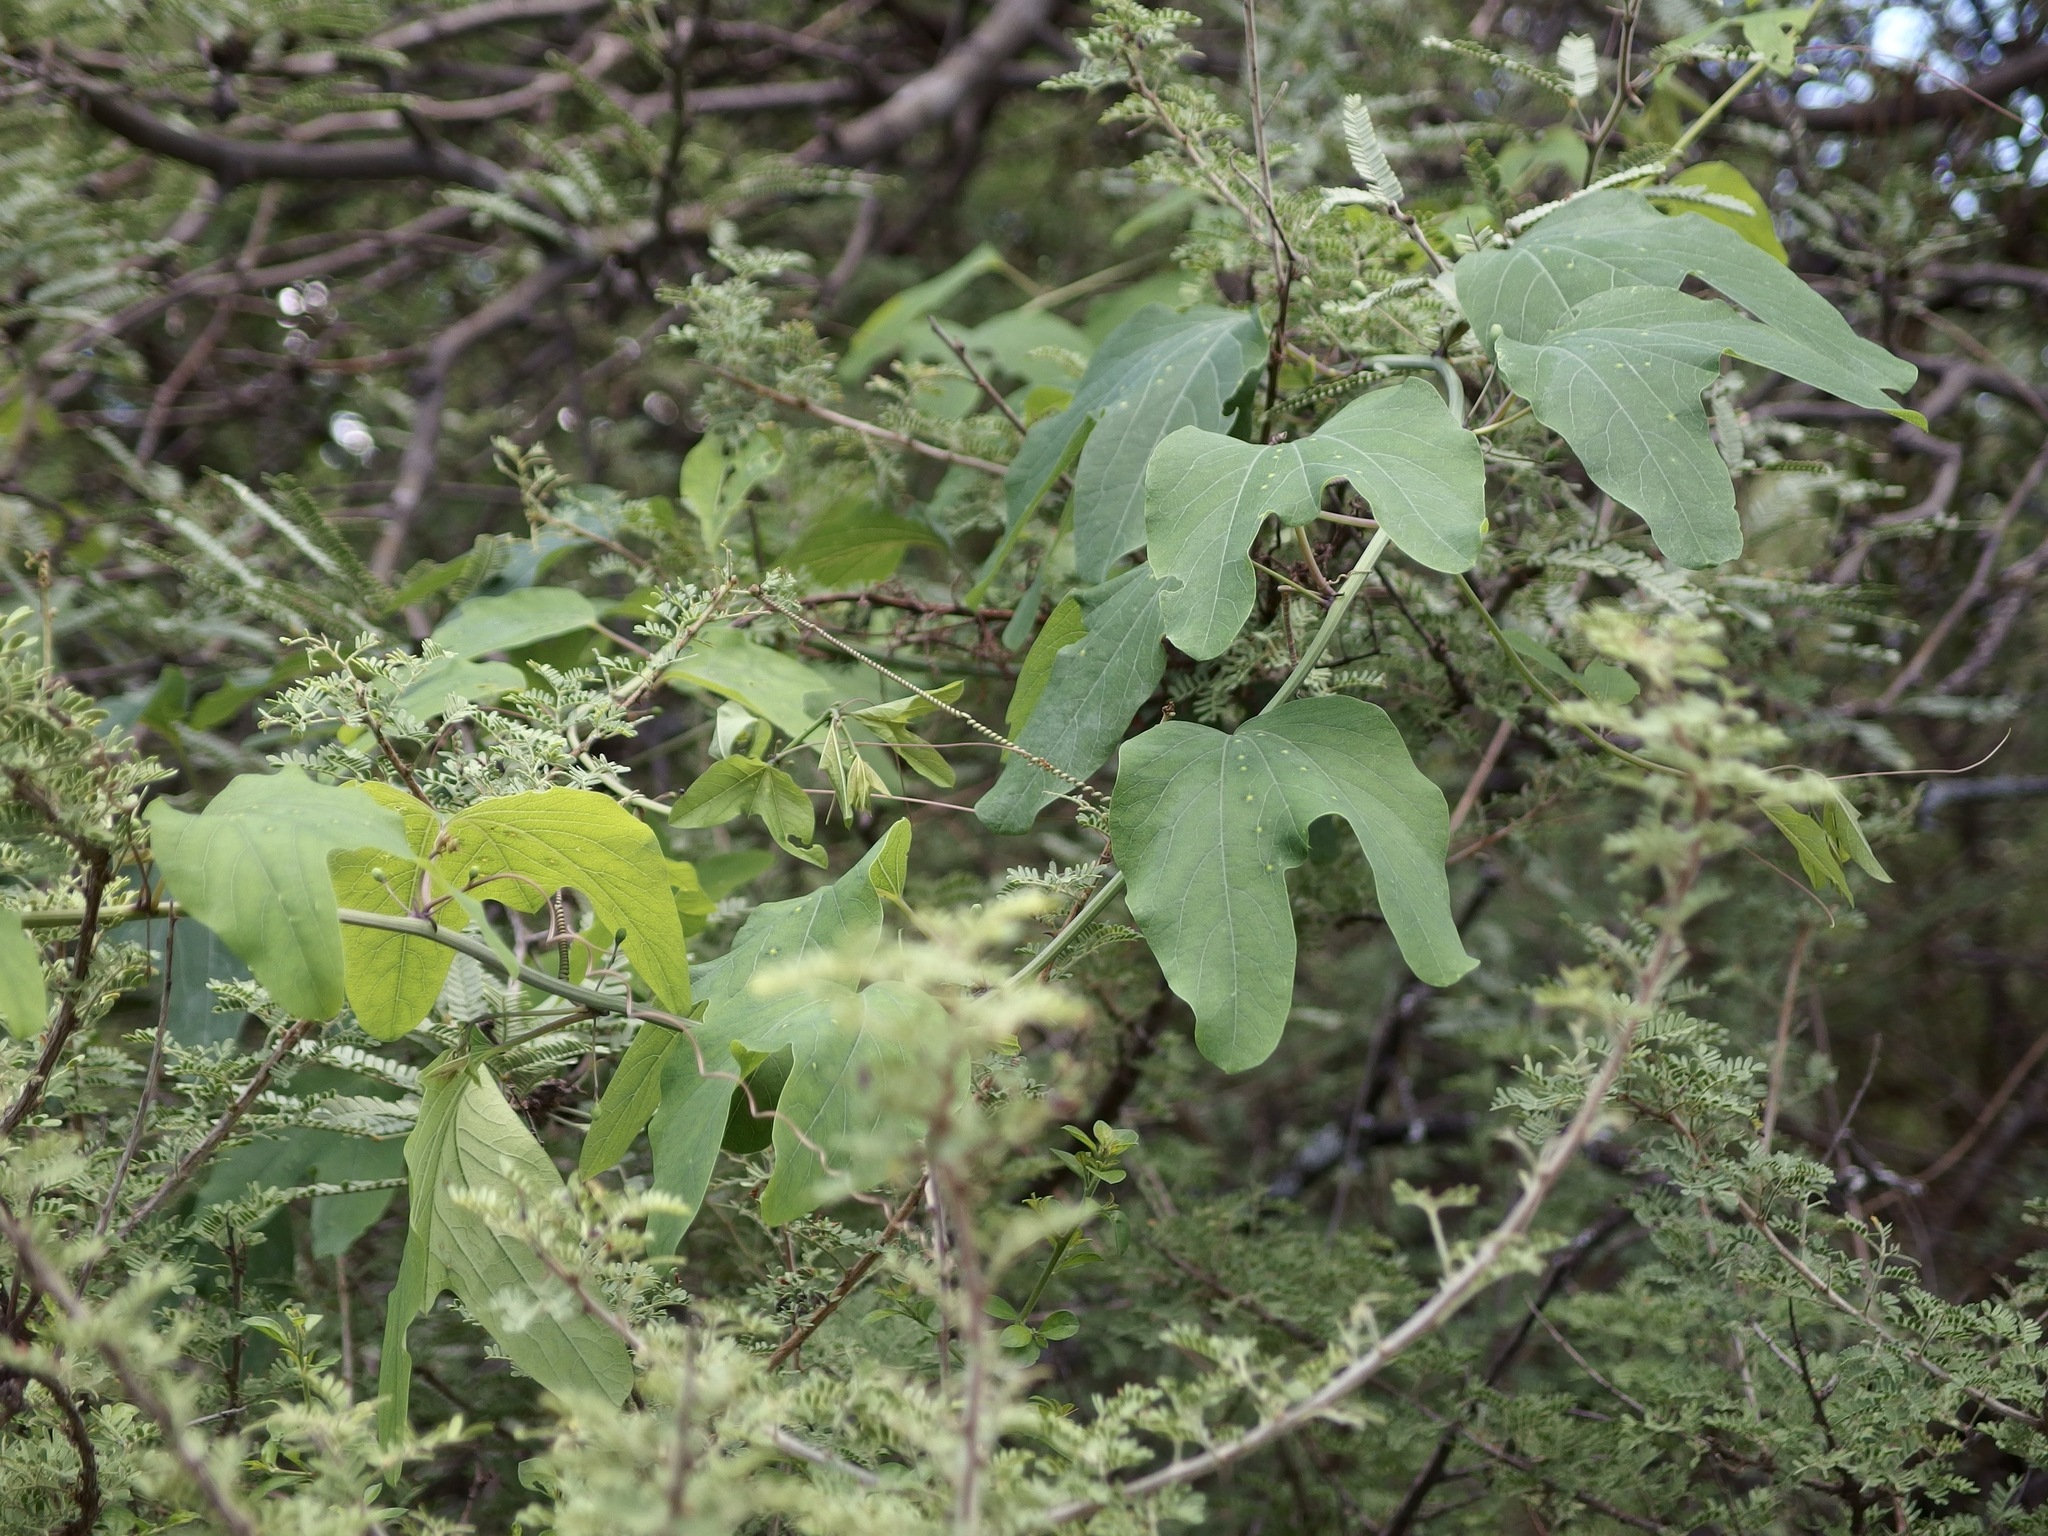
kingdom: Plantae
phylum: Tracheophyta
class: Magnoliopsida
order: Malpighiales
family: Passifloraceae
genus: Passiflora
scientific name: Passiflora mexicana
